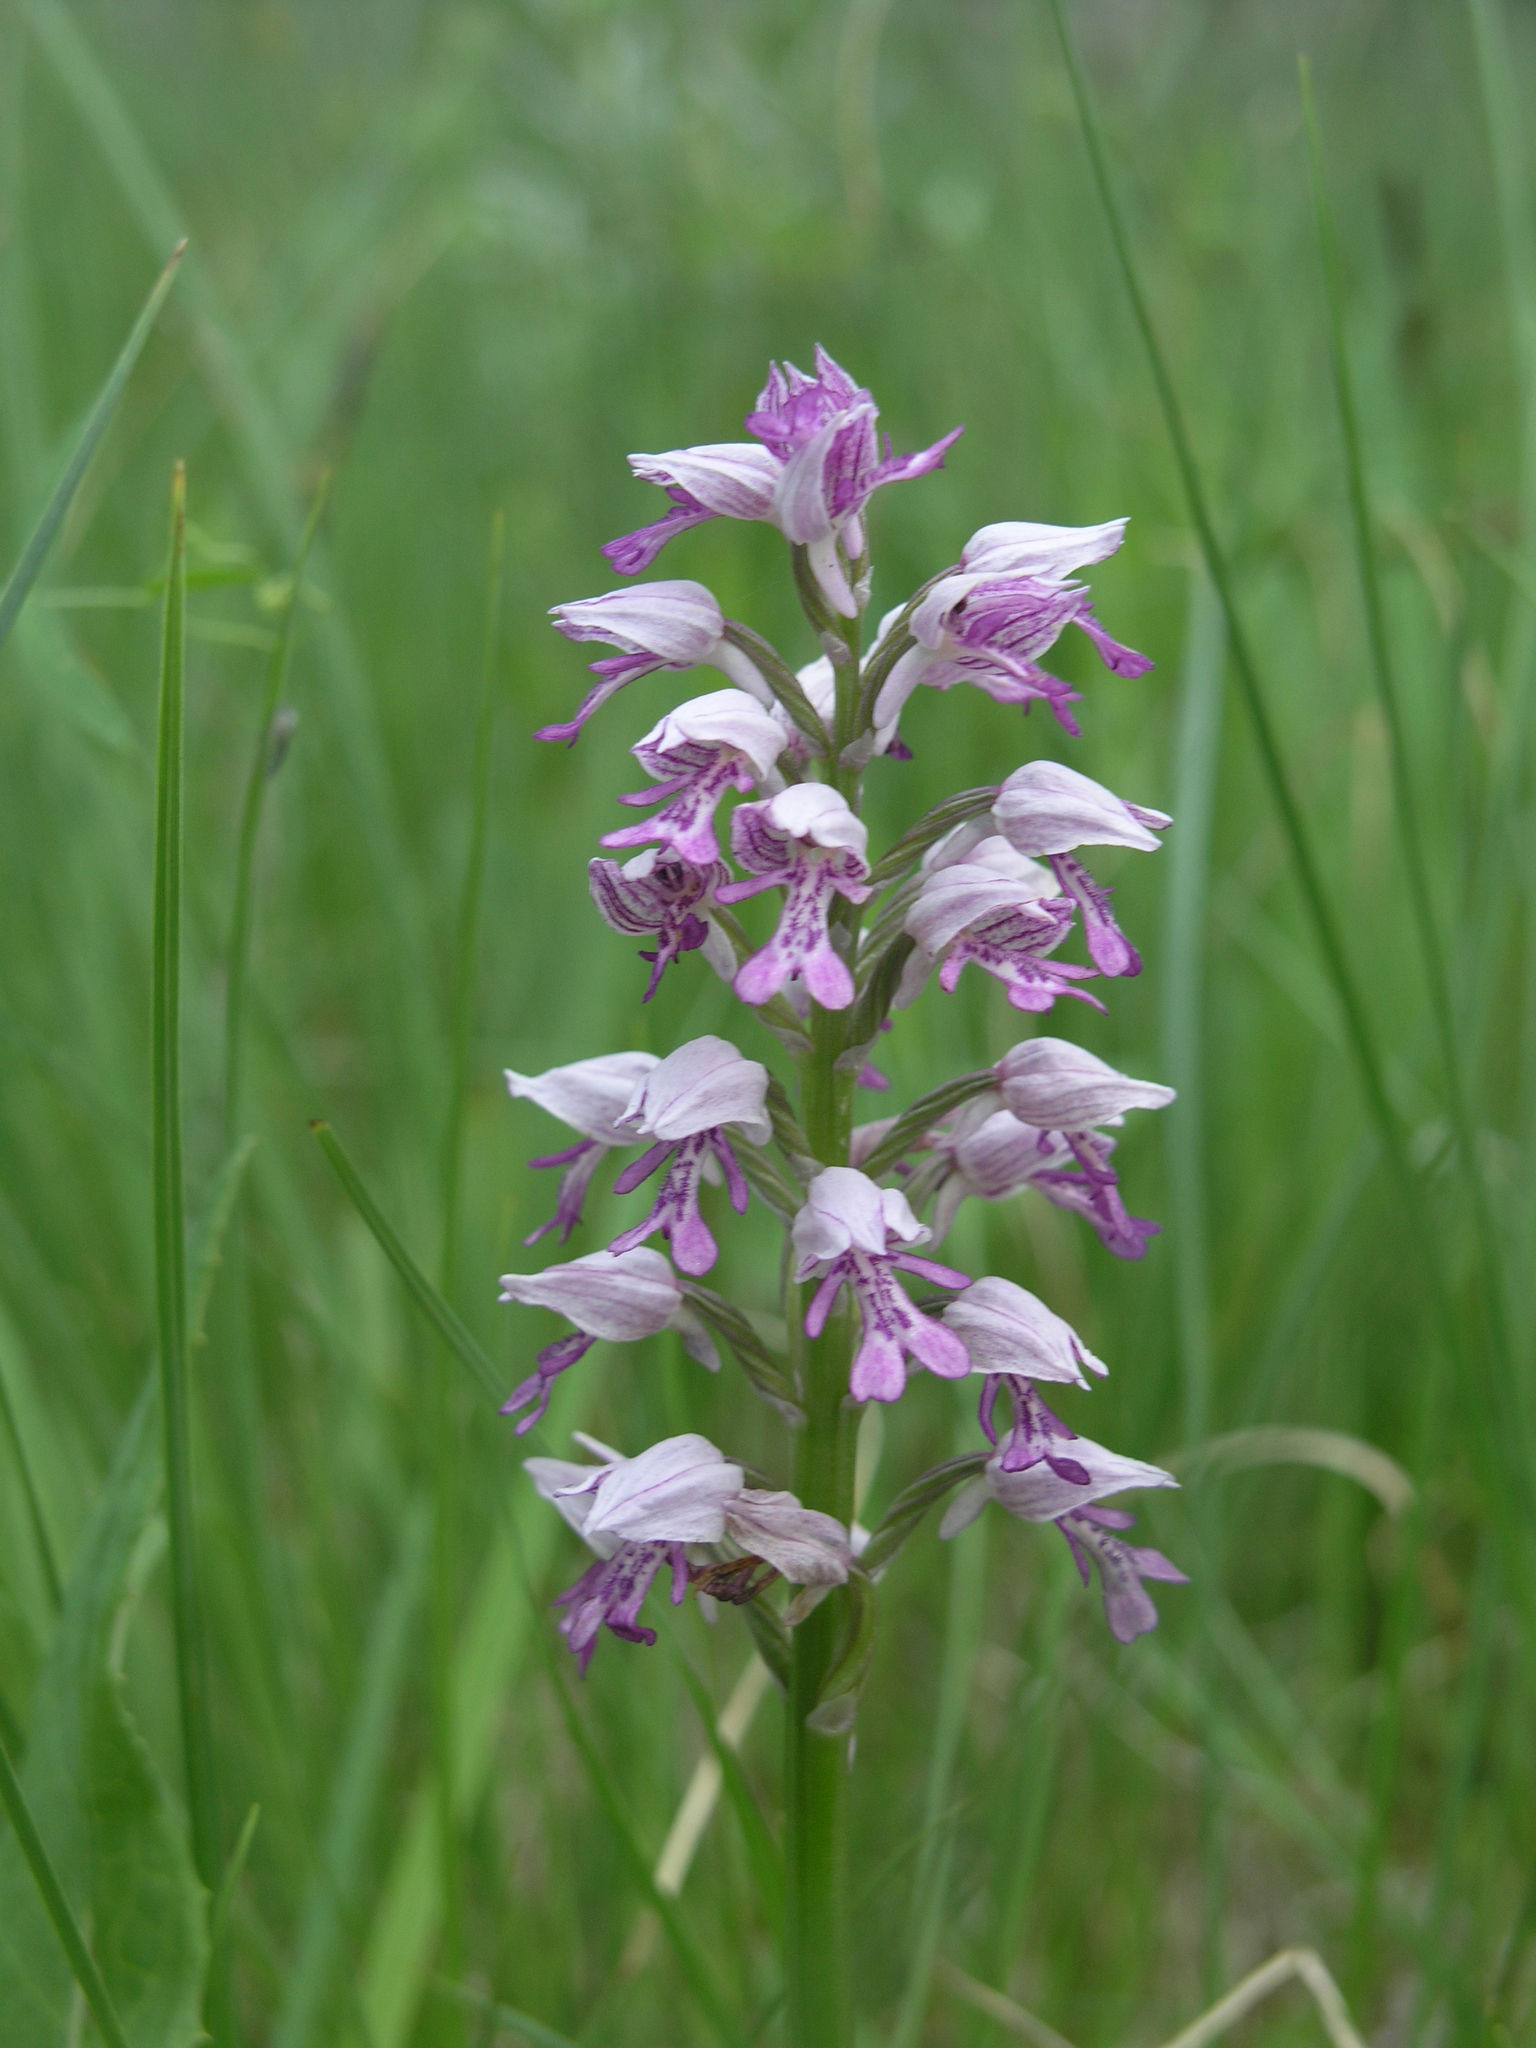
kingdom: Plantae
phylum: Tracheophyta
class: Liliopsida
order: Asparagales
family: Orchidaceae
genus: Orchis
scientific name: Orchis militaris
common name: Military orchid
